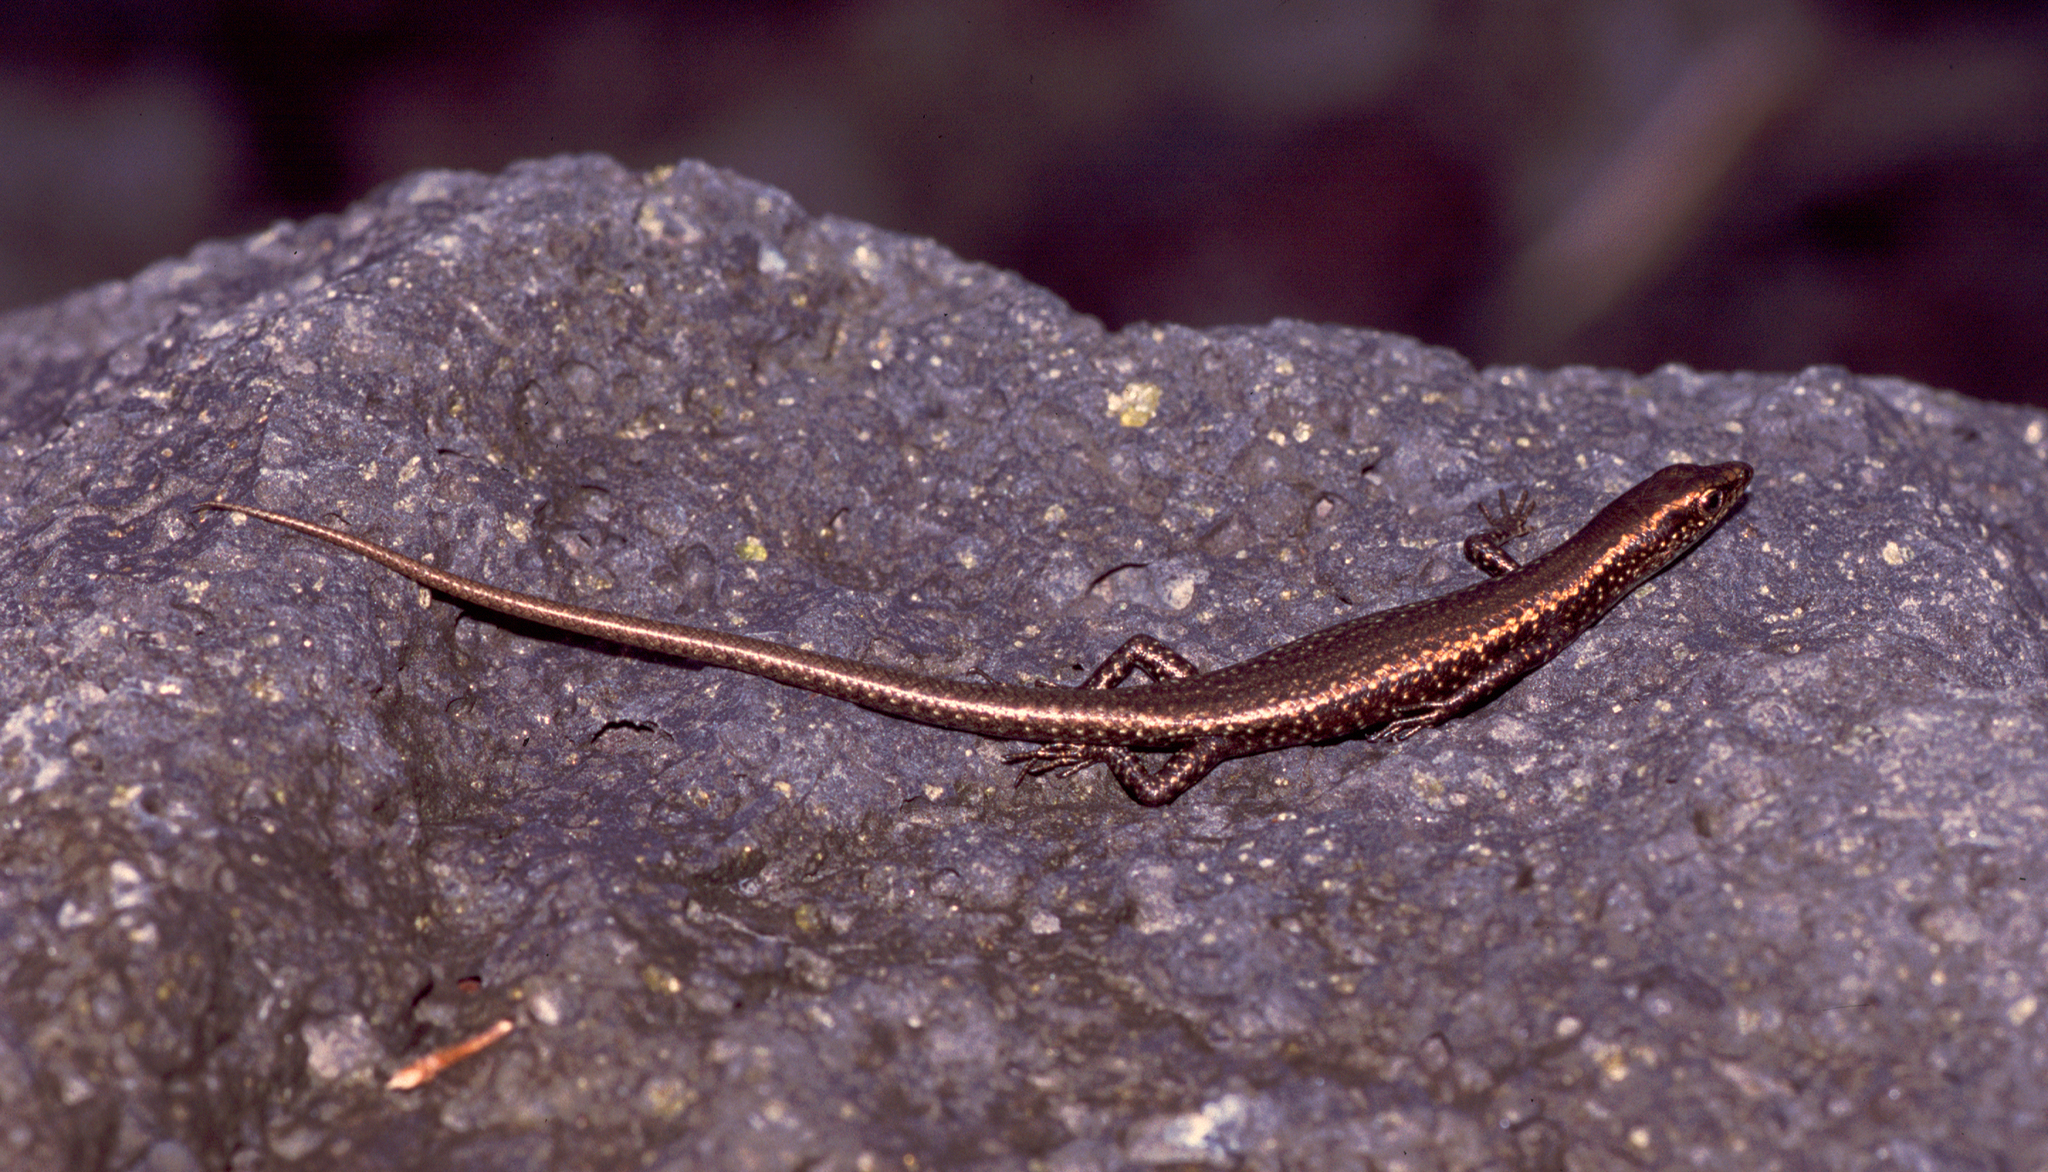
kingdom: Animalia
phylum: Chordata
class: Squamata
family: Scincidae
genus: Cryptoblepharus
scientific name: Cryptoblepharus poecilopleurus
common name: Mottled snake-eyed skink
